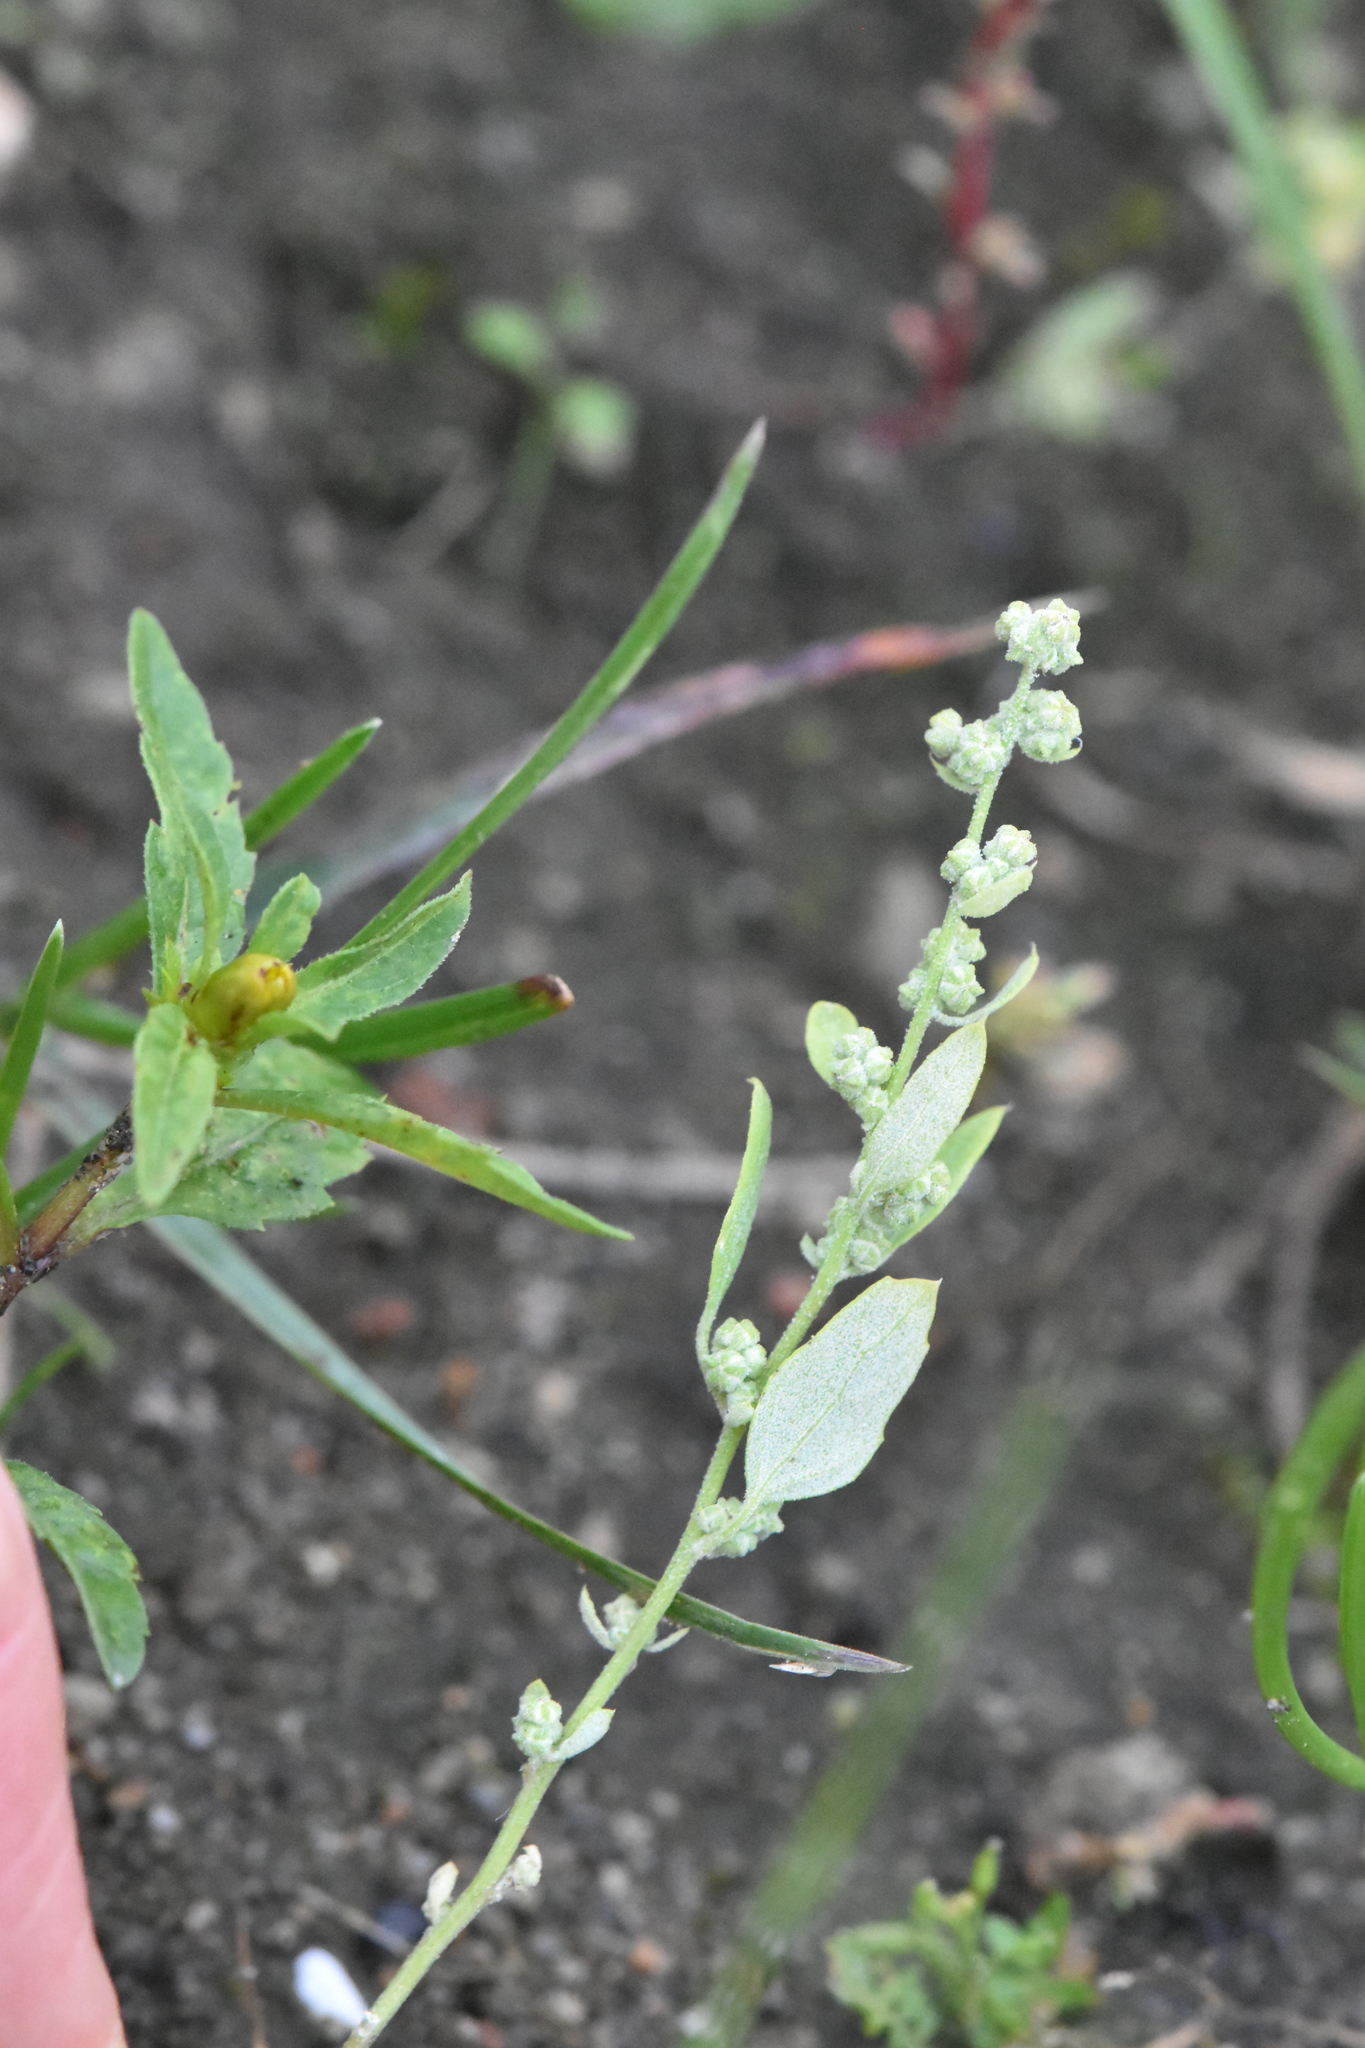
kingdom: Plantae
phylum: Tracheophyta
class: Magnoliopsida
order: Caryophyllales
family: Amaranthaceae
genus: Chenopodium
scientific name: Chenopodium album
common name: Fat-hen
